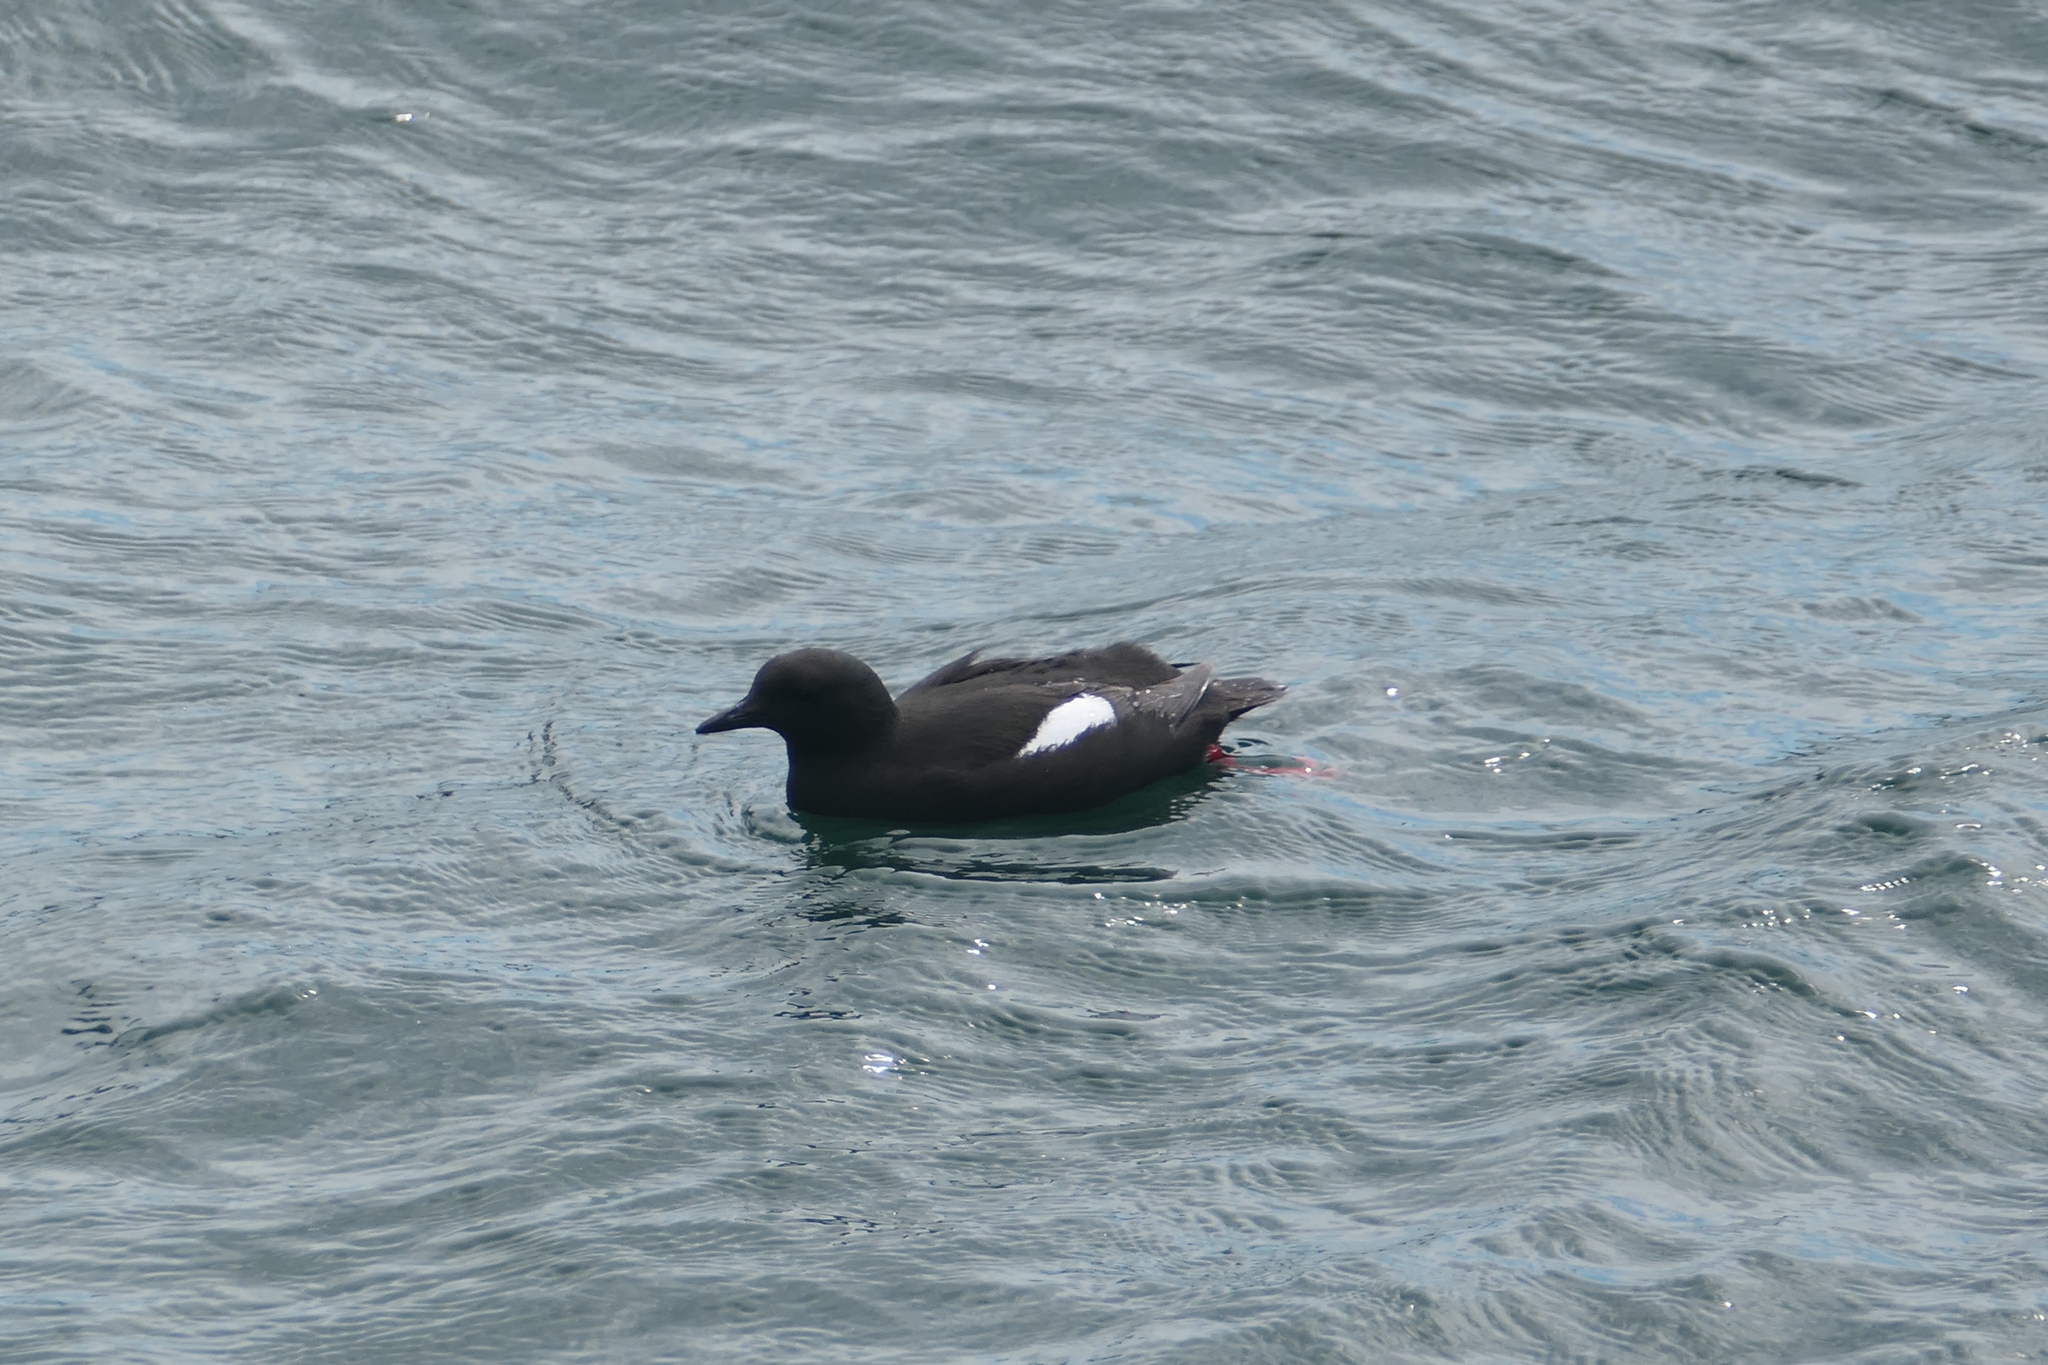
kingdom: Animalia
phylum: Chordata
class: Aves
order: Charadriiformes
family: Alcidae
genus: Cepphus
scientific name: Cepphus grylle
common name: Black guillemot
